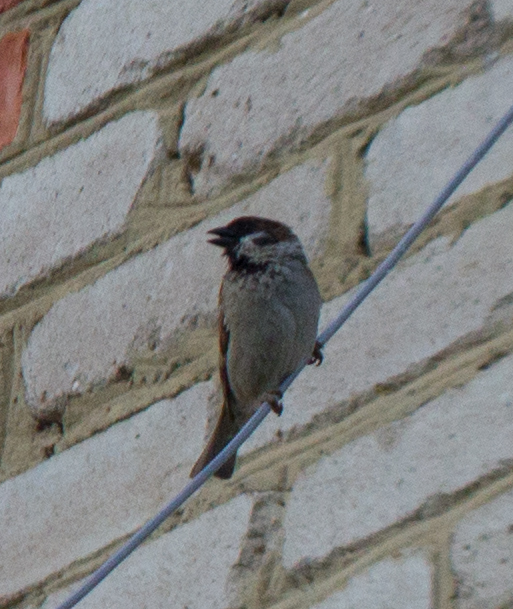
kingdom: Animalia
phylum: Chordata
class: Aves
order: Passeriformes
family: Passeridae
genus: Passer
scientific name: Passer montanus
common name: Eurasian tree sparrow
